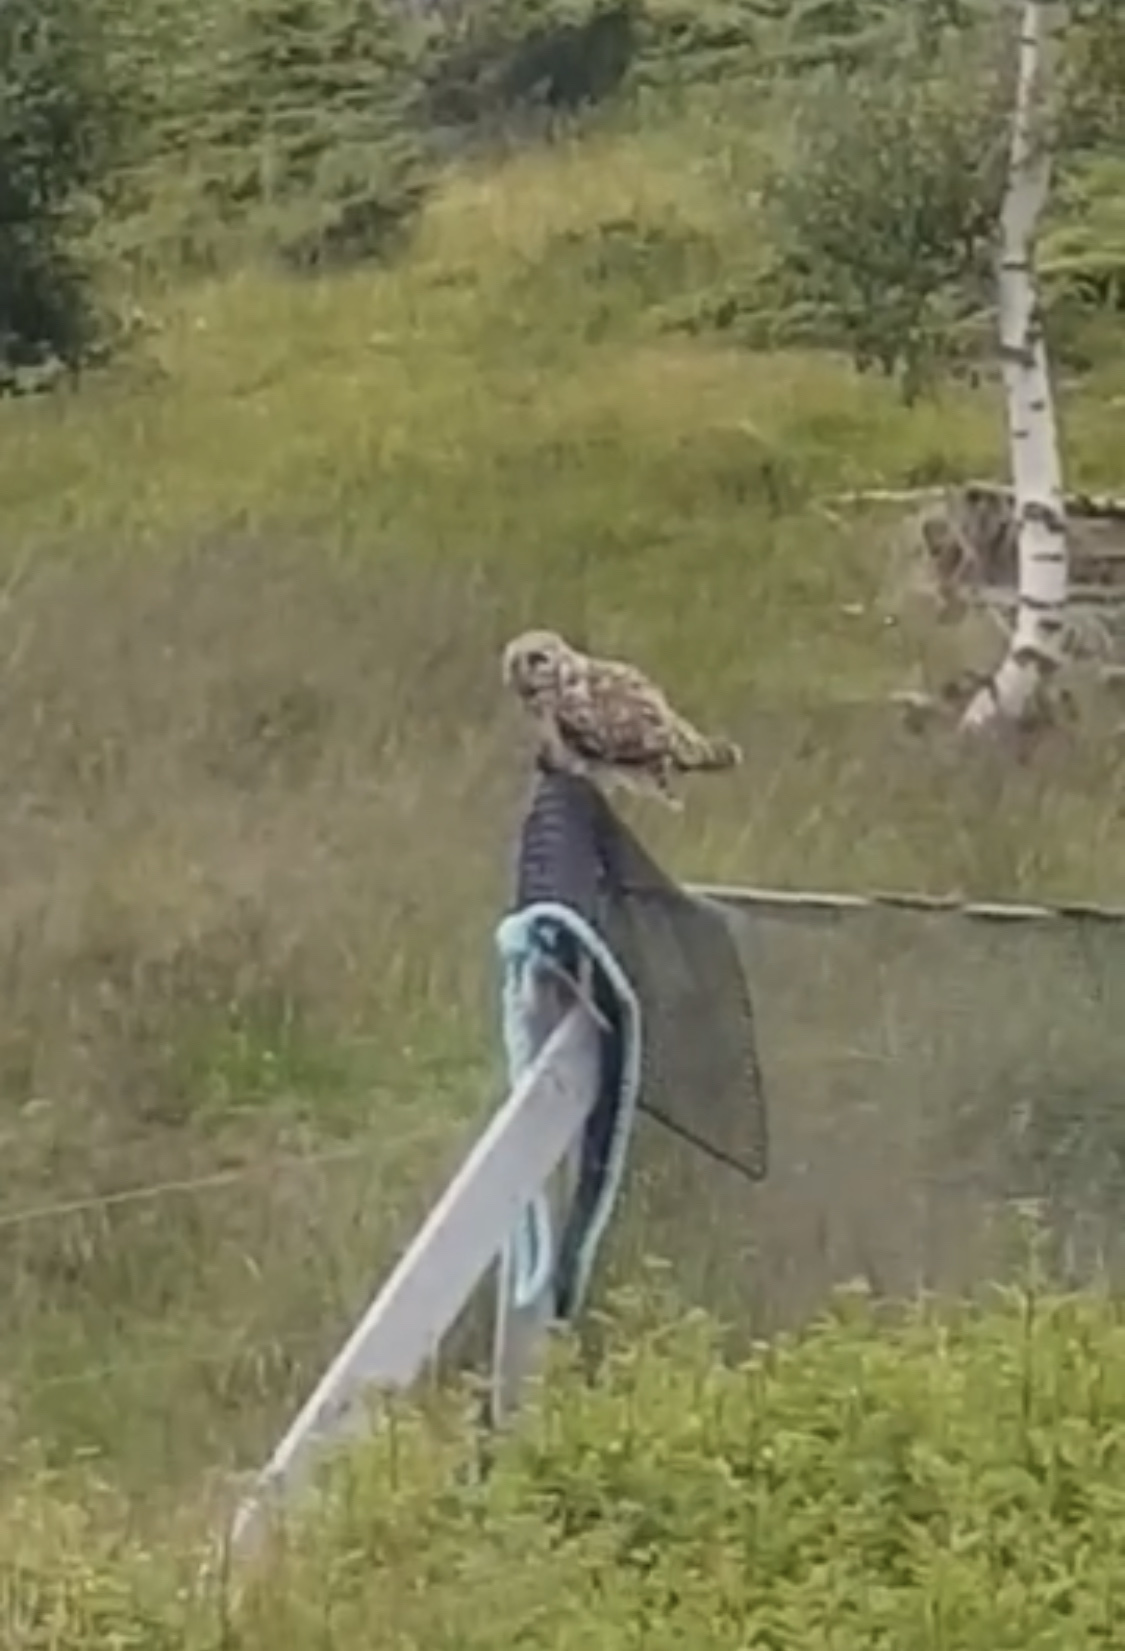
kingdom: Animalia
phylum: Chordata
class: Aves
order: Strigiformes
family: Strigidae
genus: Asio
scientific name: Asio flammeus
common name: Short-eared owl
